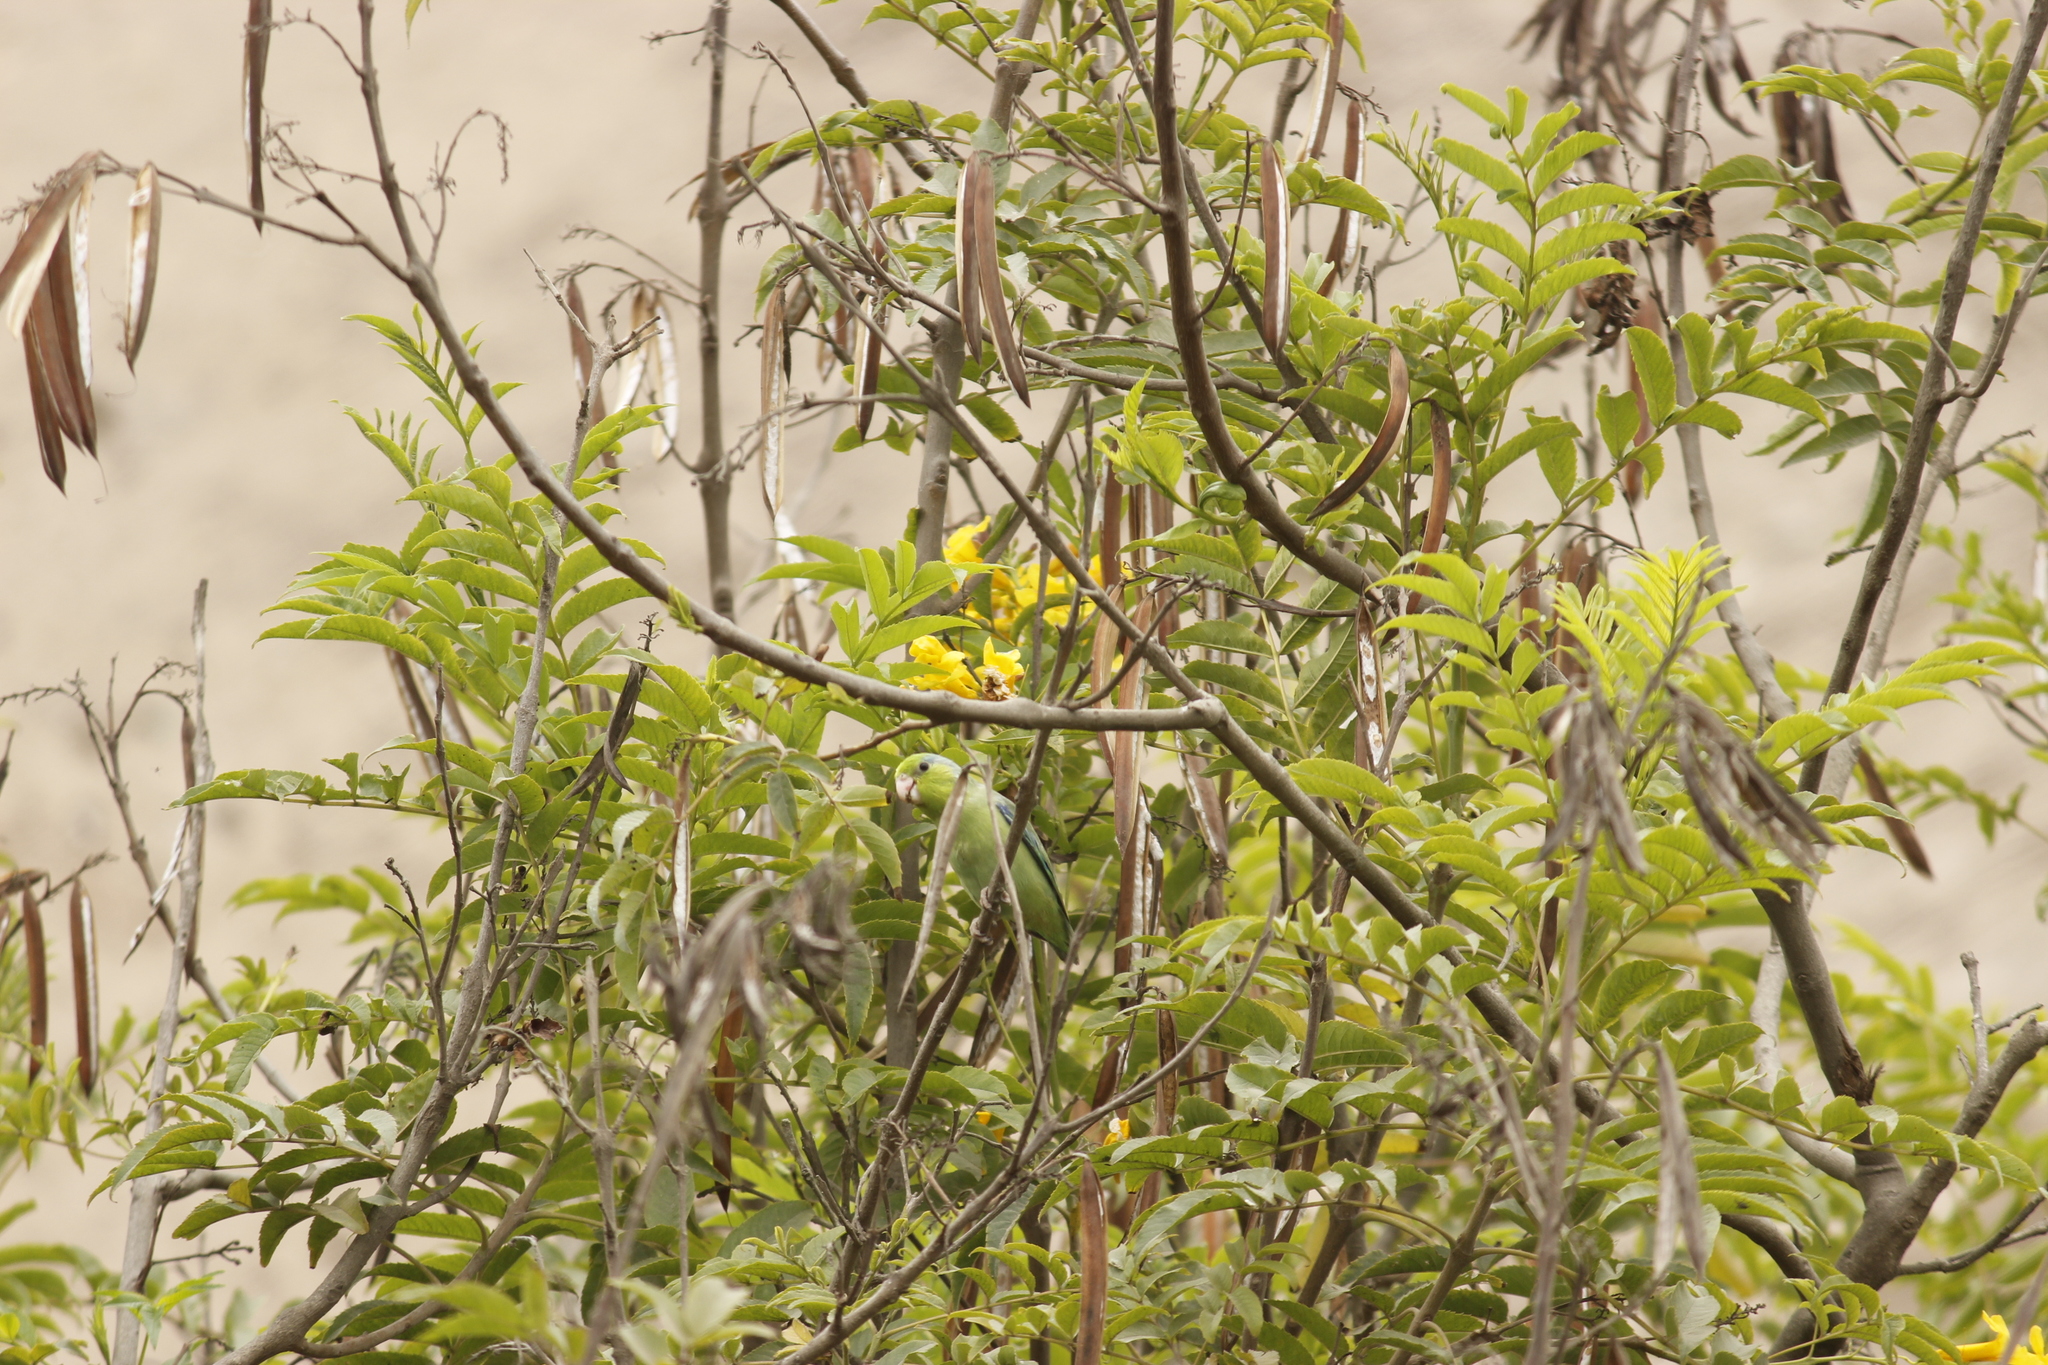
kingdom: Animalia
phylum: Chordata
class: Aves
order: Psittaciformes
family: Psittacidae
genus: Forpus
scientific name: Forpus coelestis
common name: Pacific parrotlet
